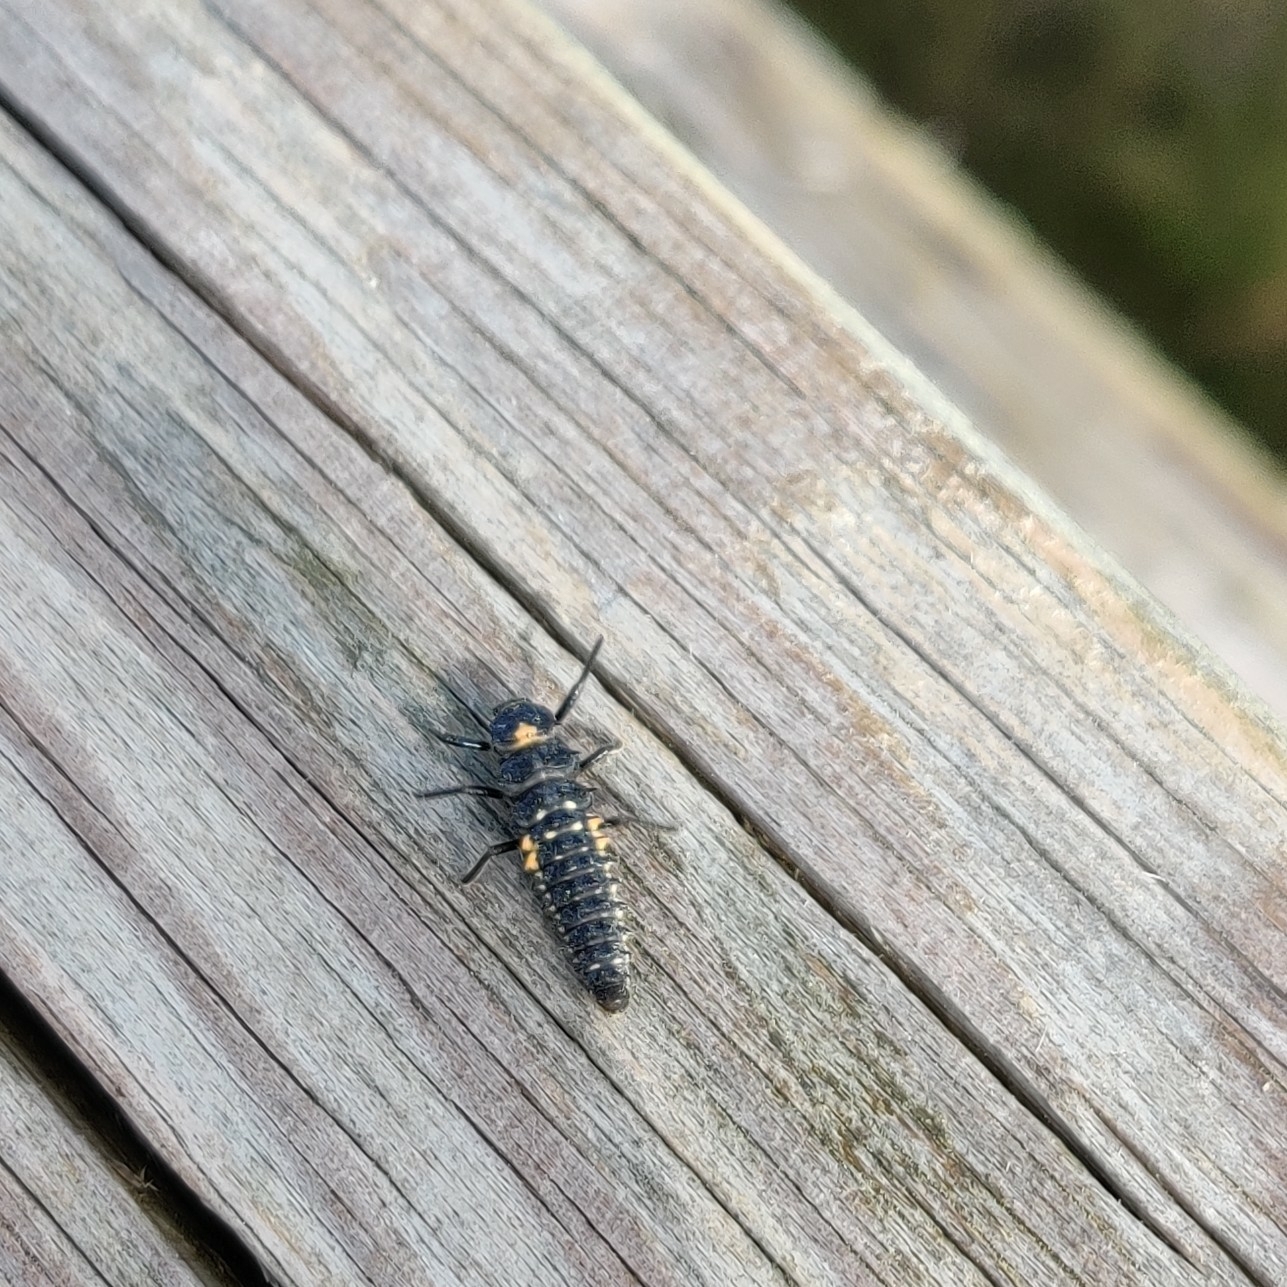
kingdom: Animalia
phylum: Arthropoda
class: Insecta
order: Coleoptera
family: Coccinellidae
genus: Anatis
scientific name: Anatis ocellata
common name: Eyed ladybird
